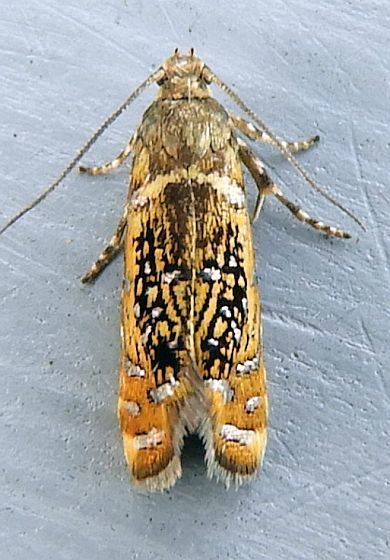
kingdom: Animalia
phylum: Arthropoda
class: Insecta
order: Lepidoptera
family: Glyphipterigidae
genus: Glyphipterix
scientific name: Glyphipterix quadragintapunctata
